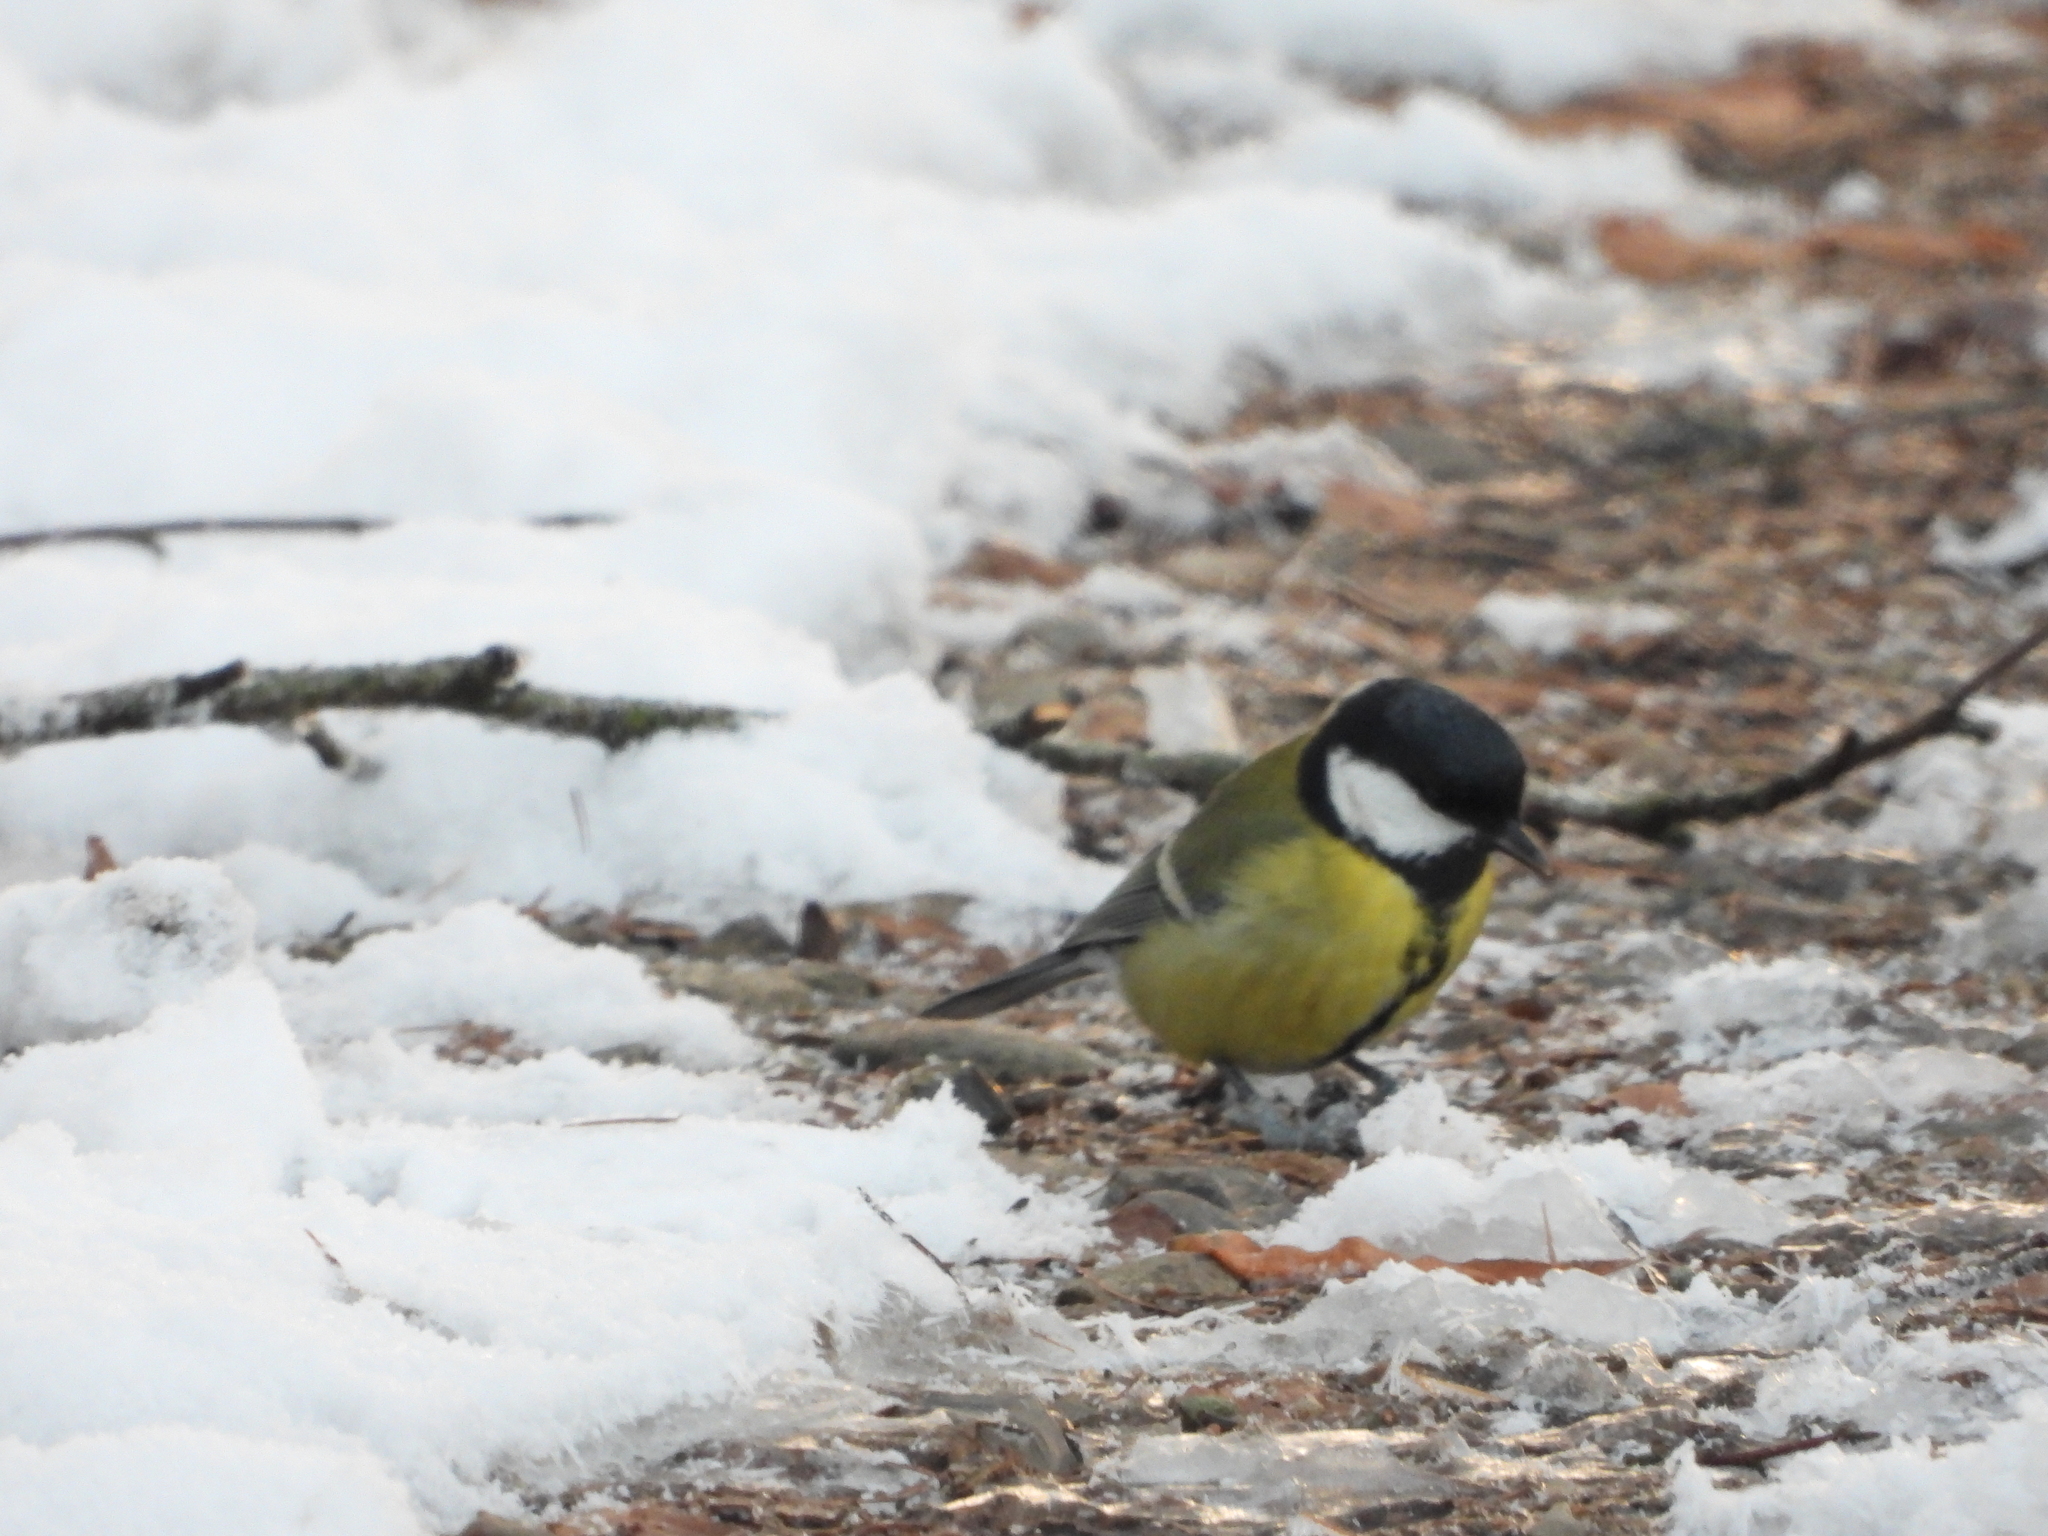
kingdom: Animalia
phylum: Chordata
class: Aves
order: Passeriformes
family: Paridae
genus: Parus
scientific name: Parus major
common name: Great tit
